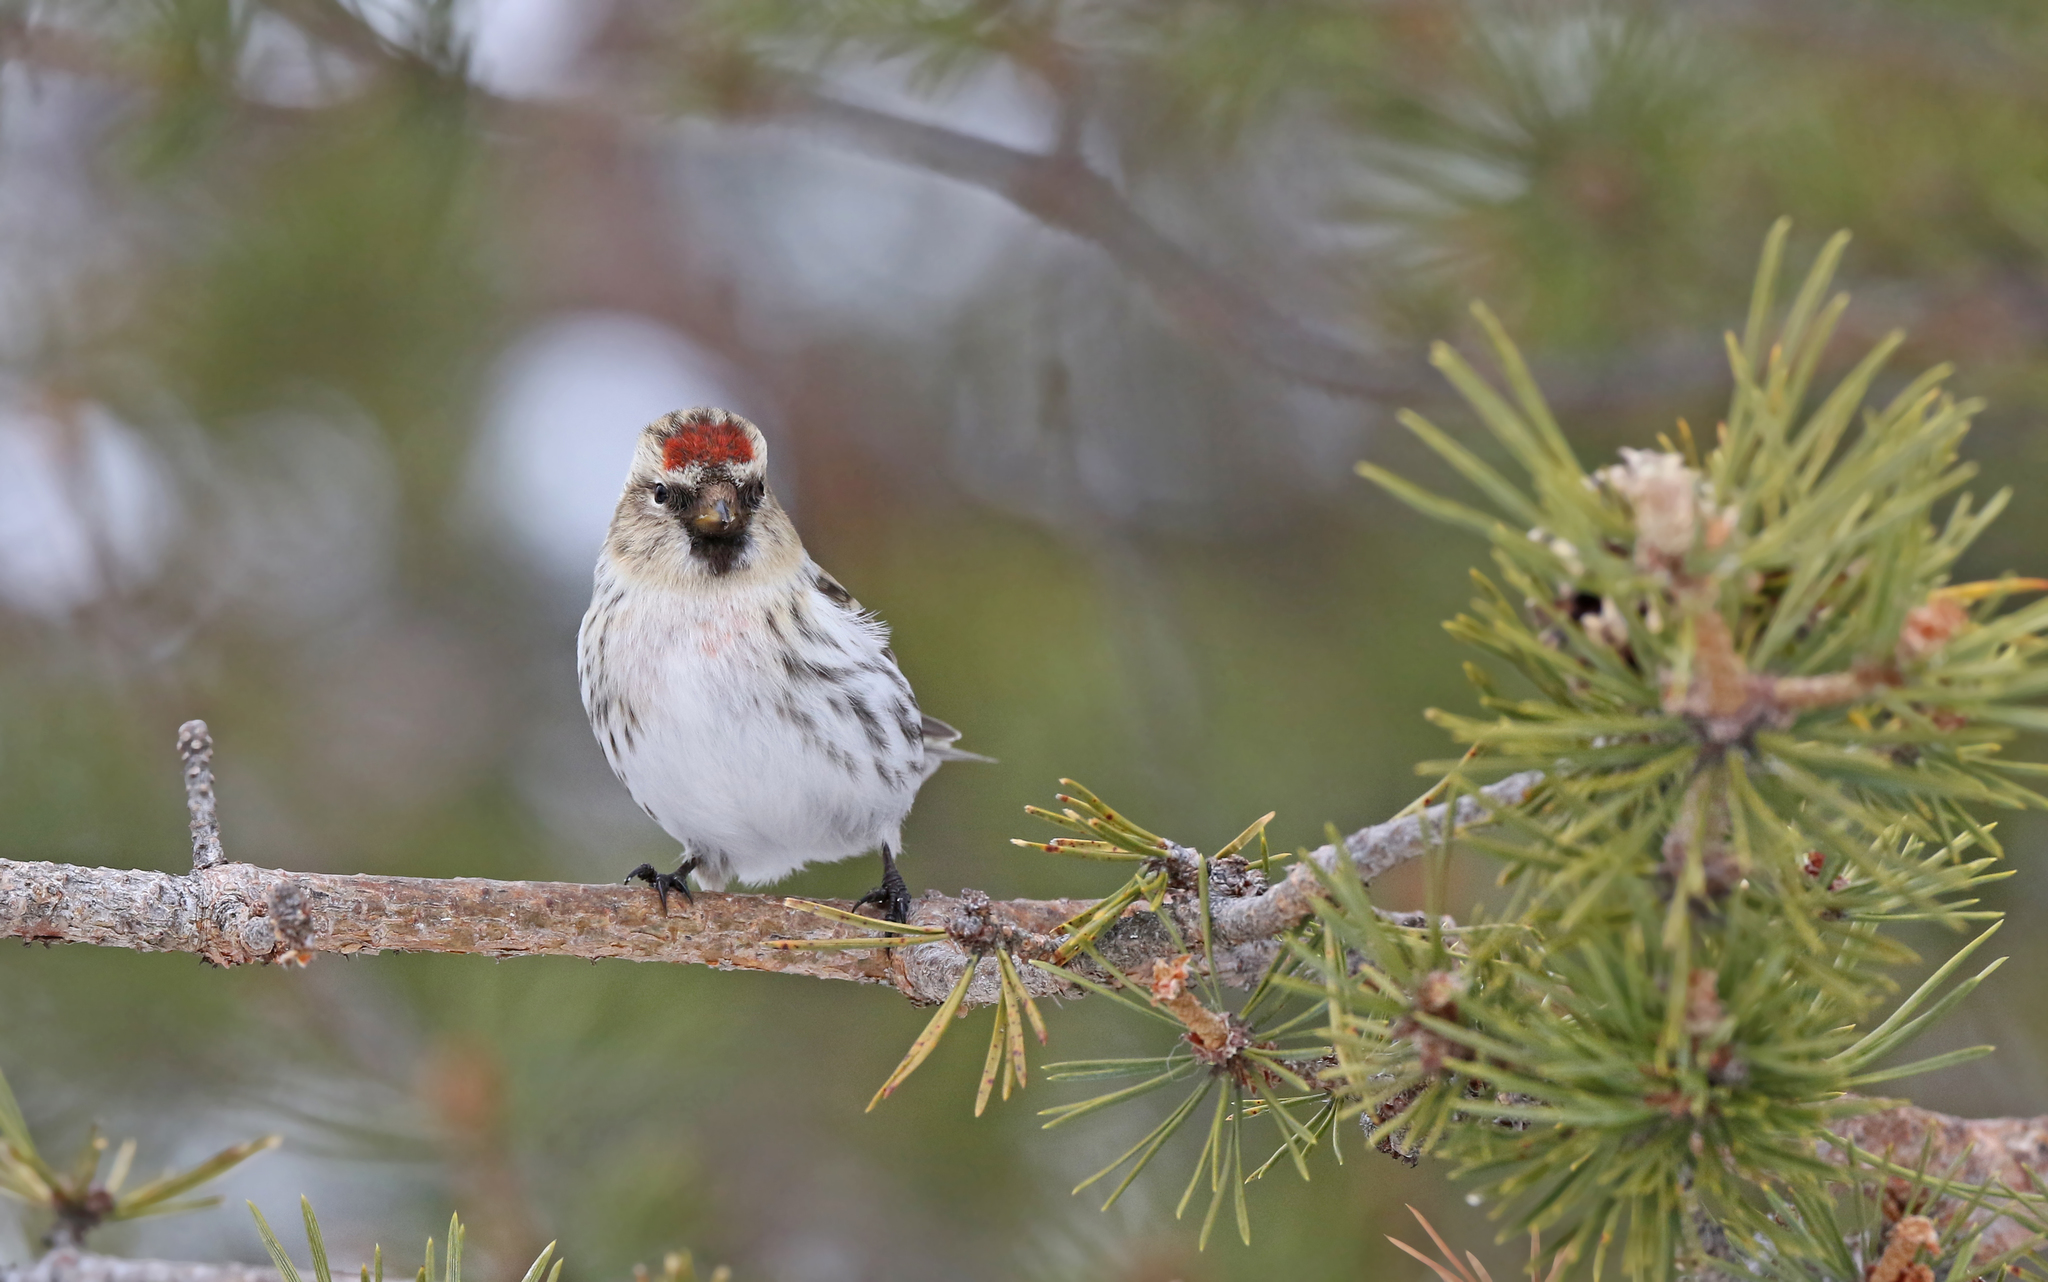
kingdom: Animalia
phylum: Chordata
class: Aves
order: Passeriformes
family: Fringillidae
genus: Acanthis
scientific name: Acanthis flammea
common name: Common redpoll
